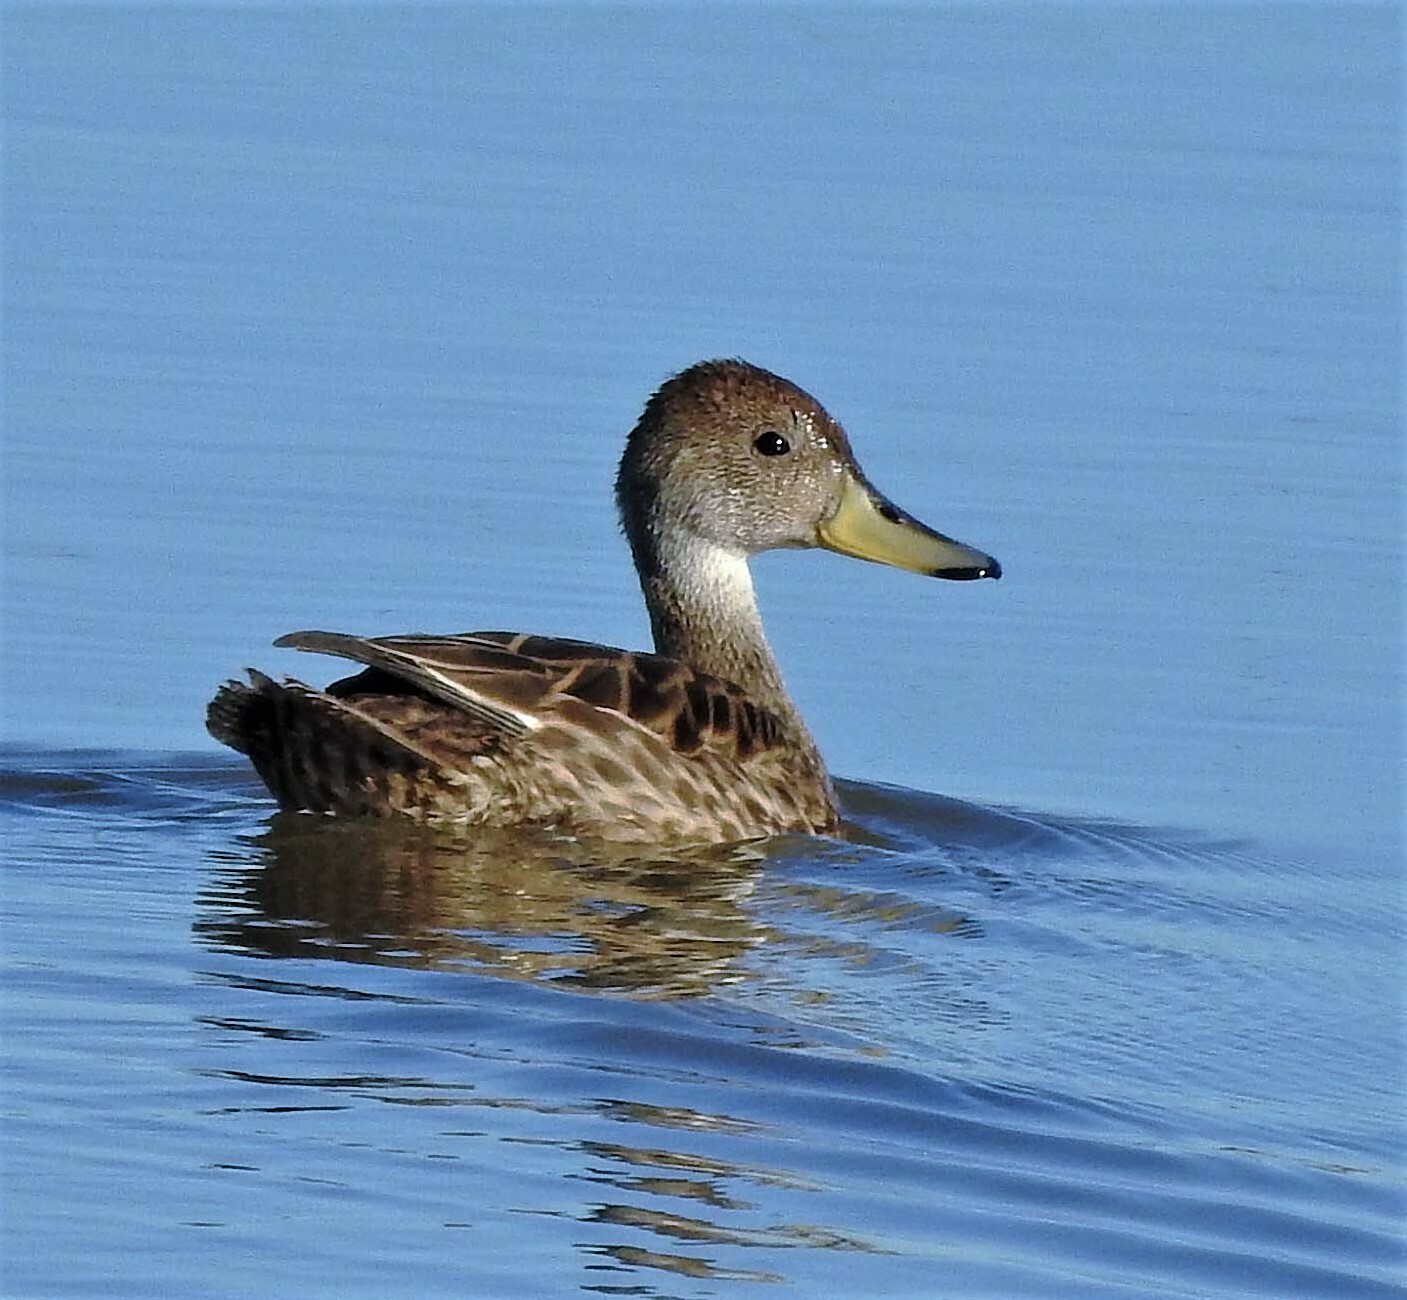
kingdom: Animalia
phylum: Chordata
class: Aves
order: Anseriformes
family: Anatidae
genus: Anas
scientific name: Anas georgica
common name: Yellow-billed pintail
